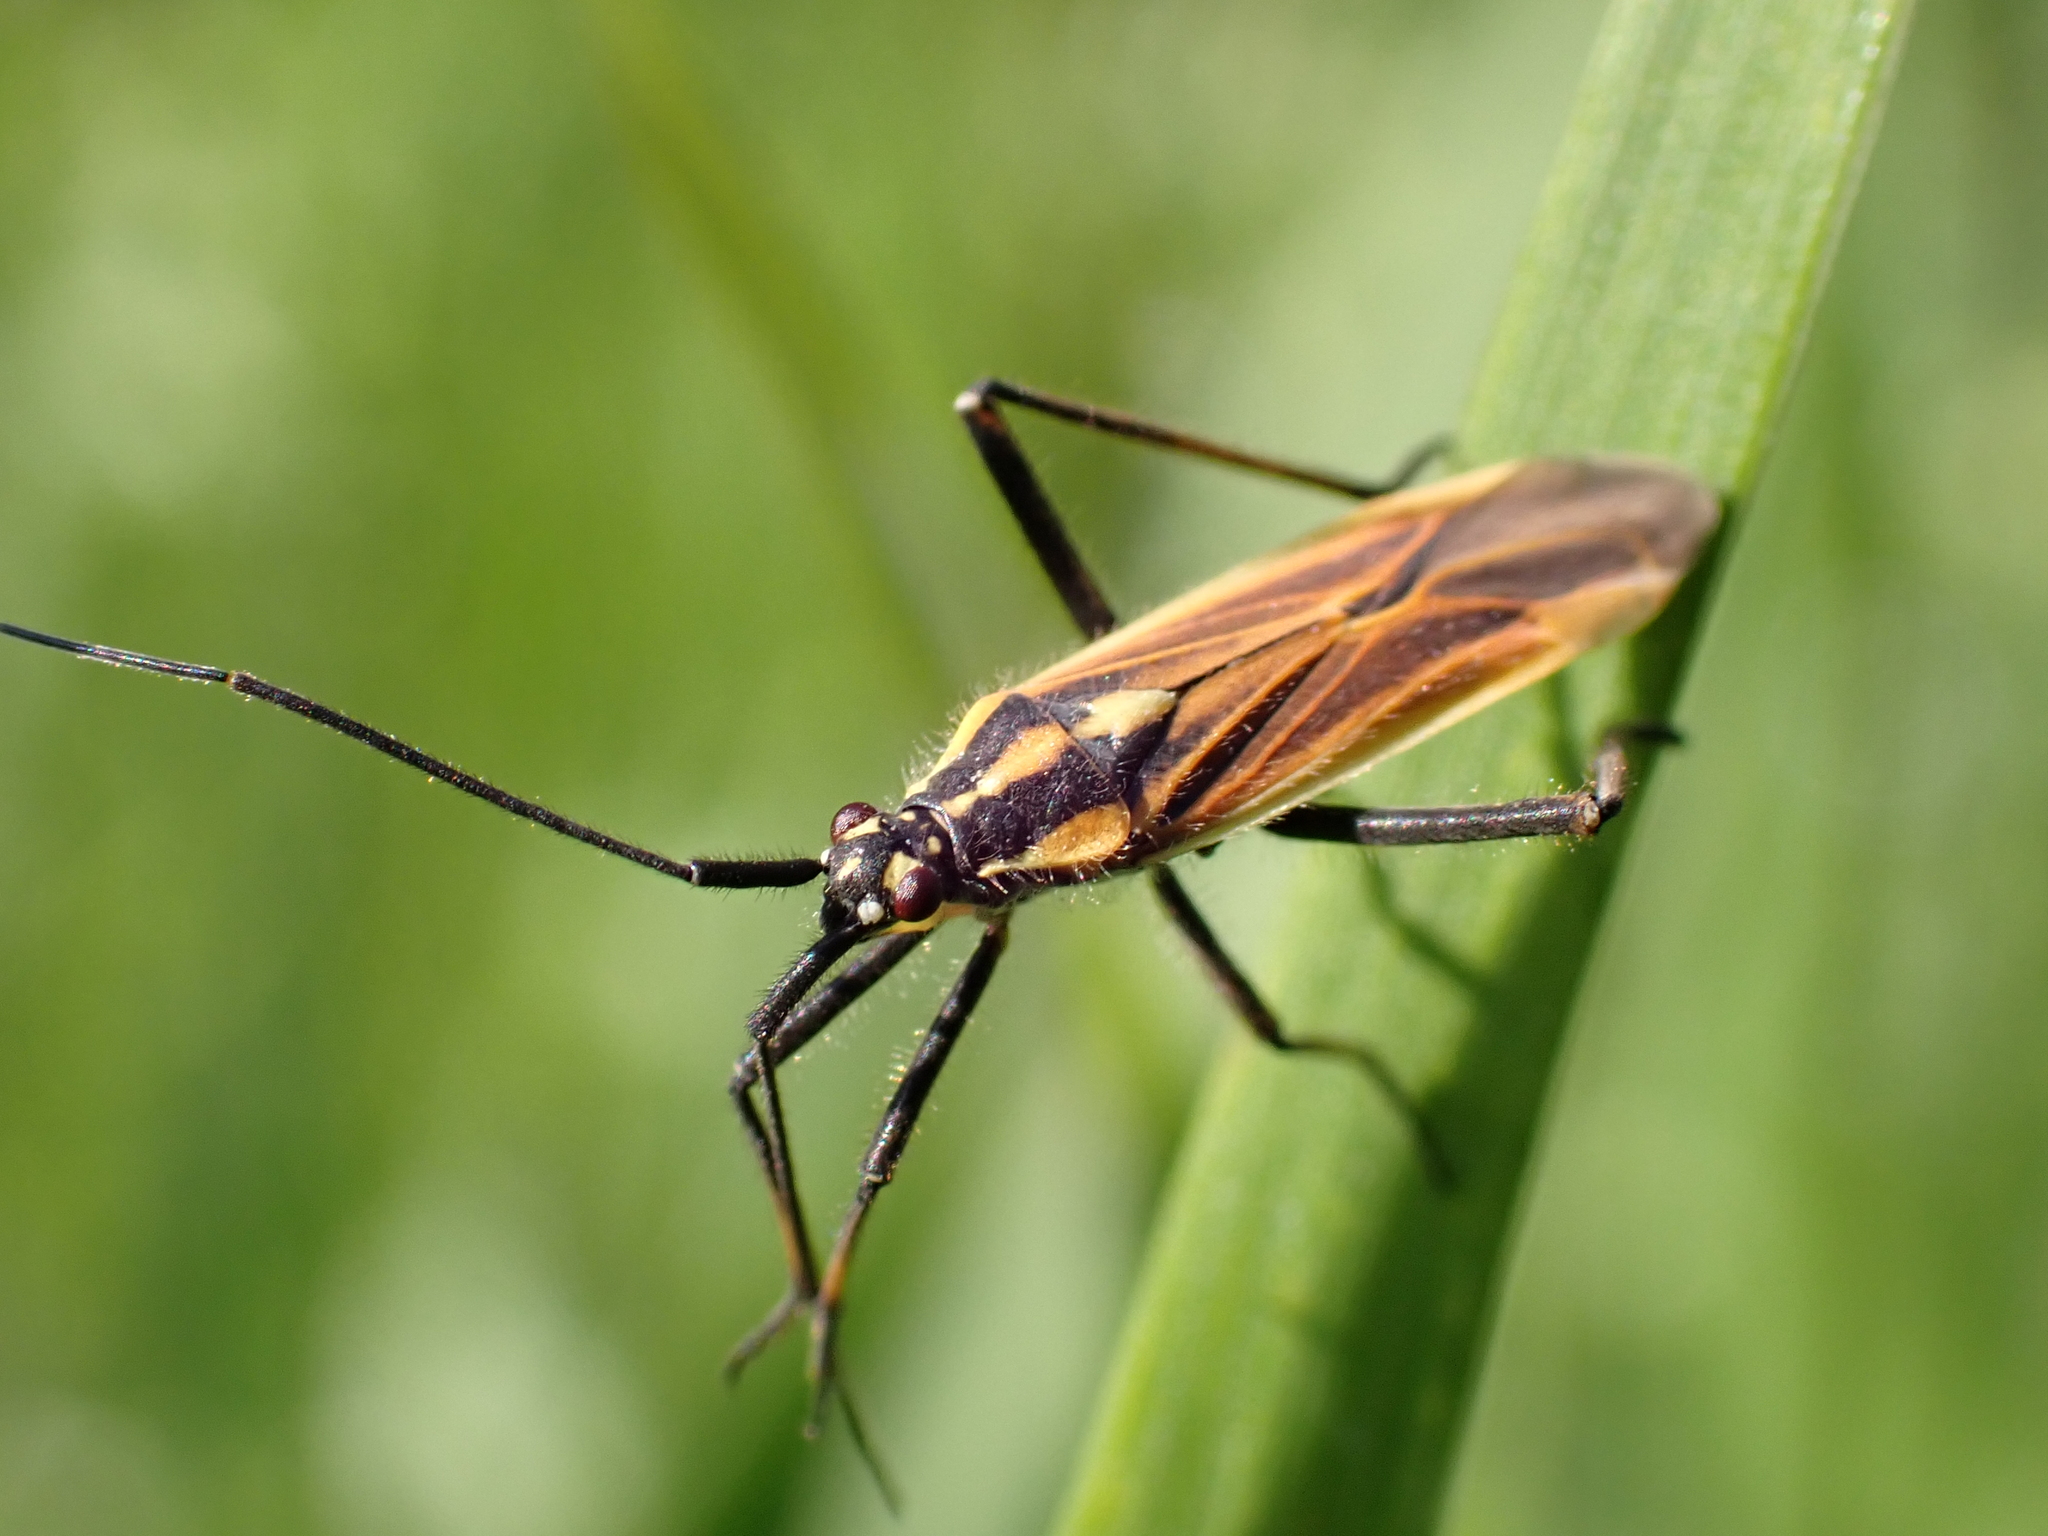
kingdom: Animalia
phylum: Arthropoda
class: Insecta
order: Hemiptera
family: Miridae
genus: Leptopterna
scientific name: Leptopterna dolabrata
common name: Meadow plant bug
